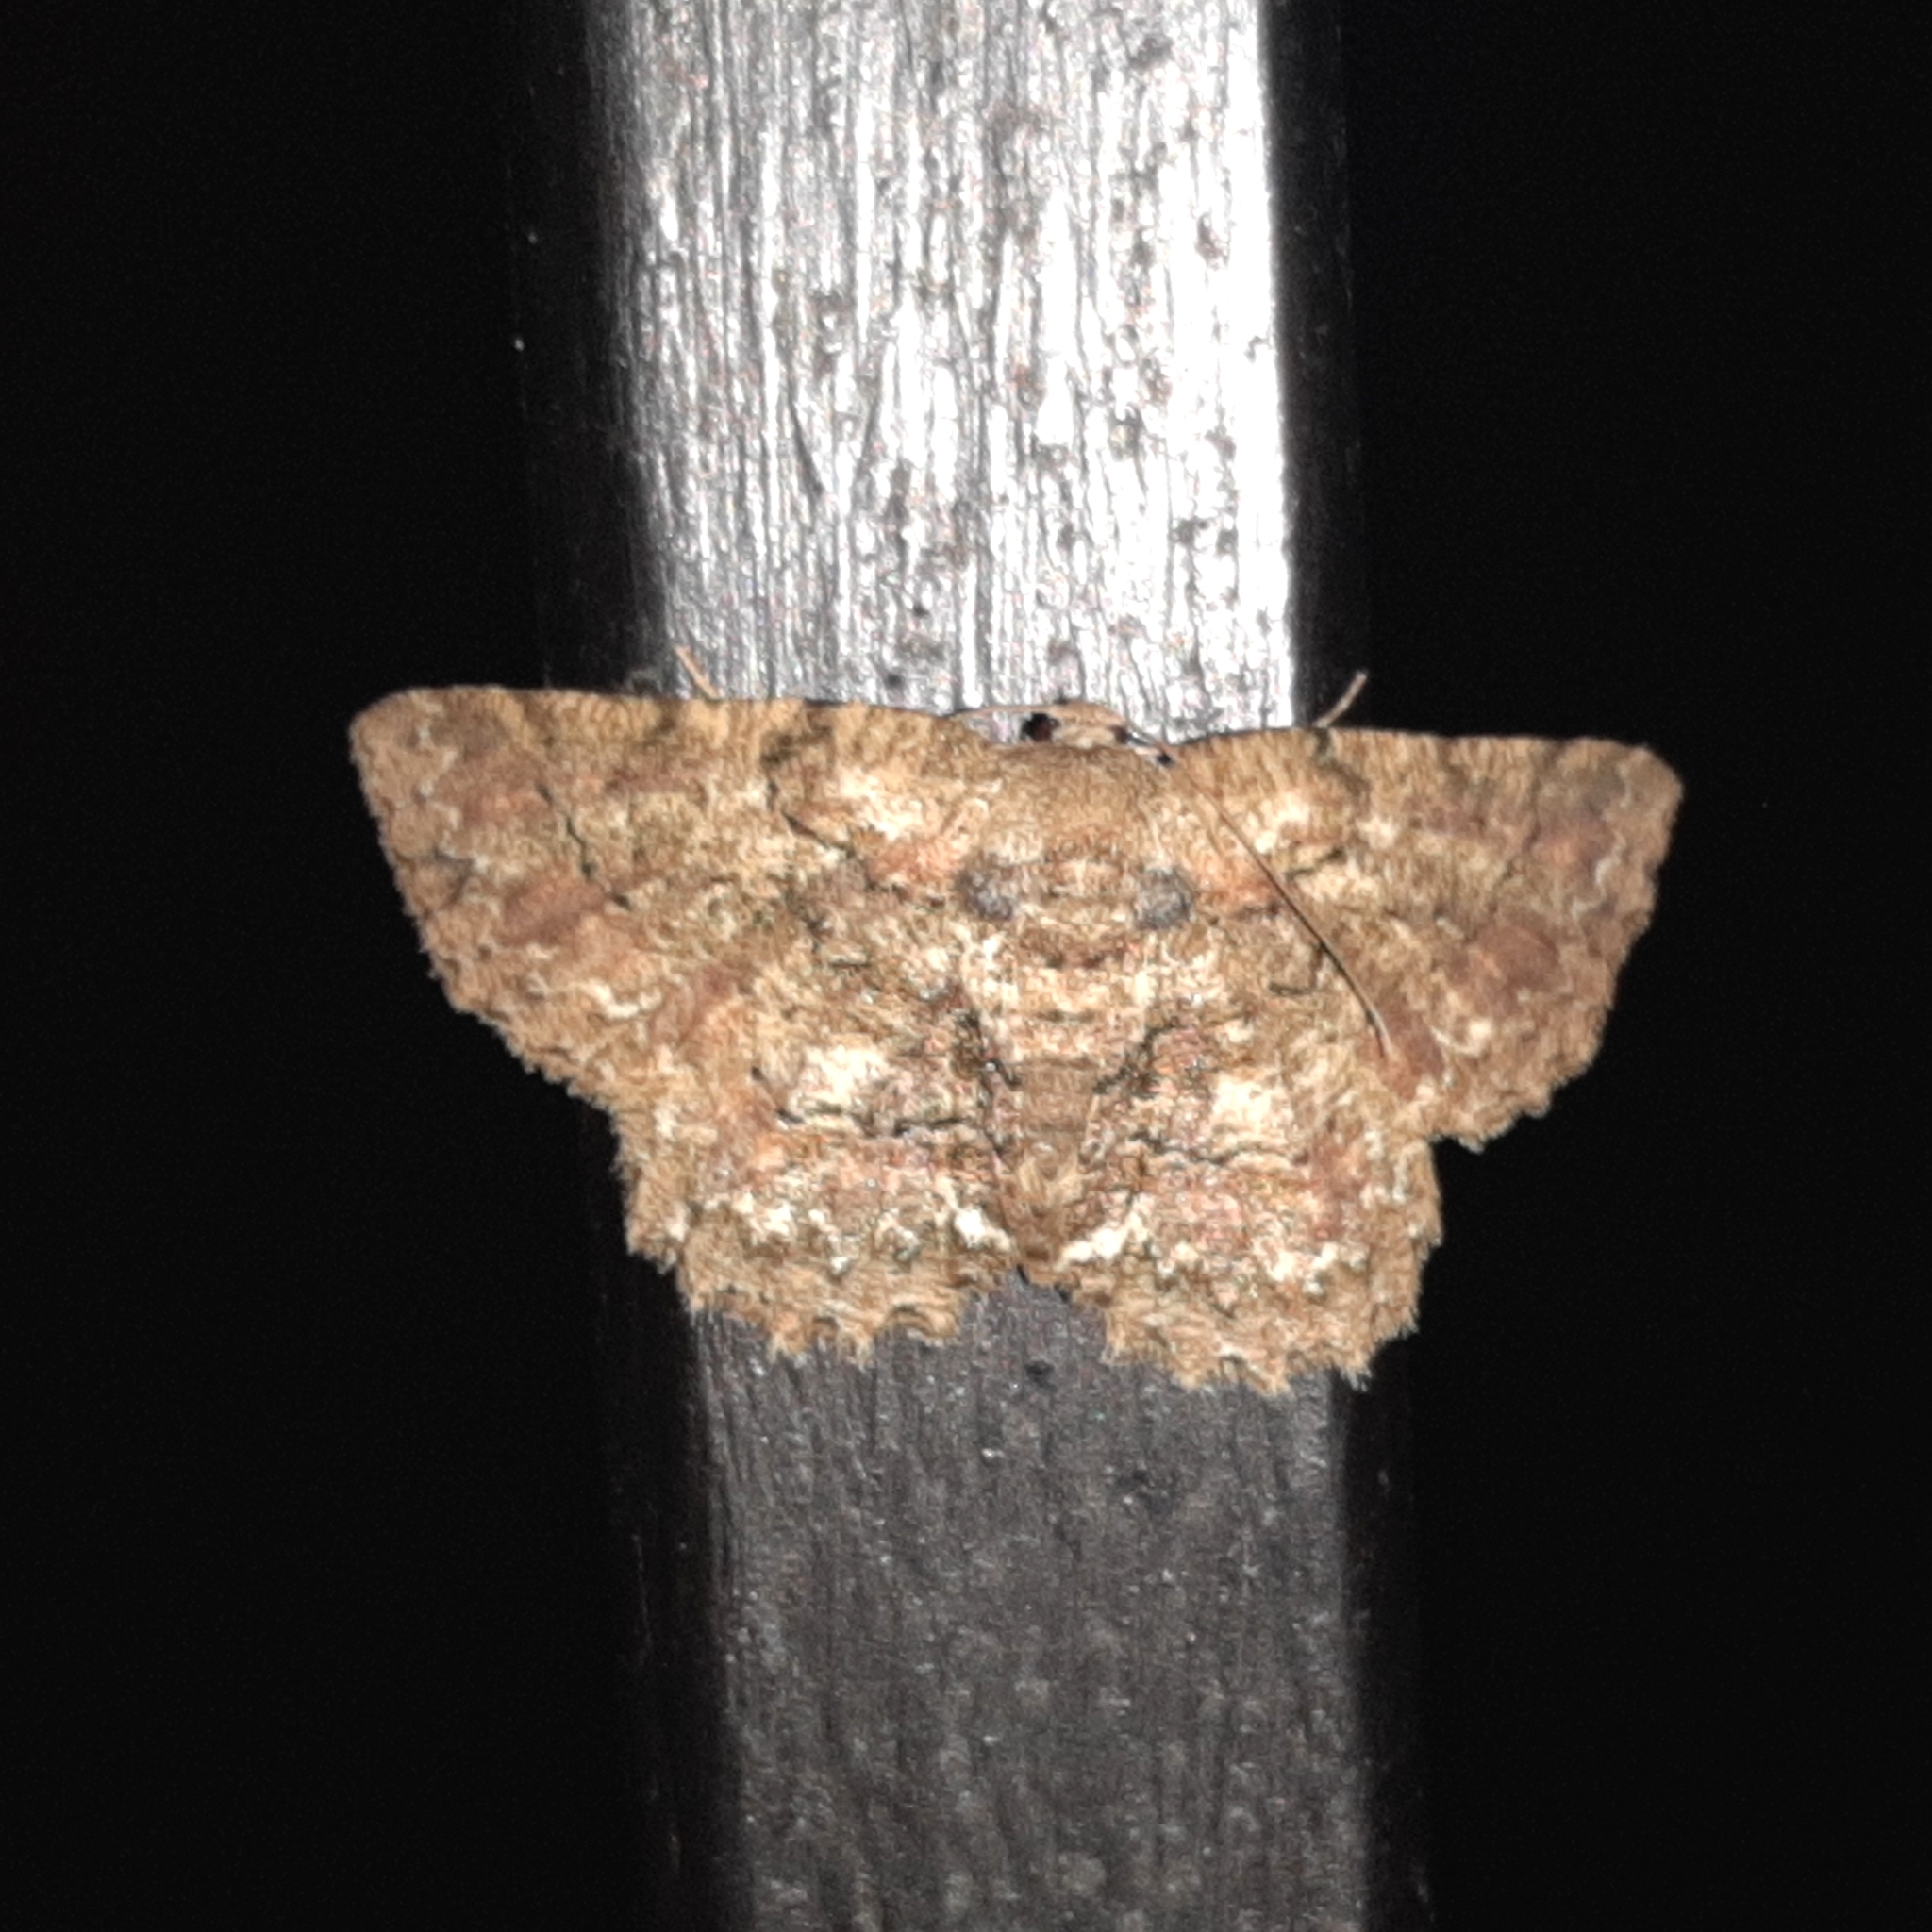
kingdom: Animalia
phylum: Arthropoda
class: Insecta
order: Lepidoptera
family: Geometridae
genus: Bryoptera
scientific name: Bryoptera subbrunnea
